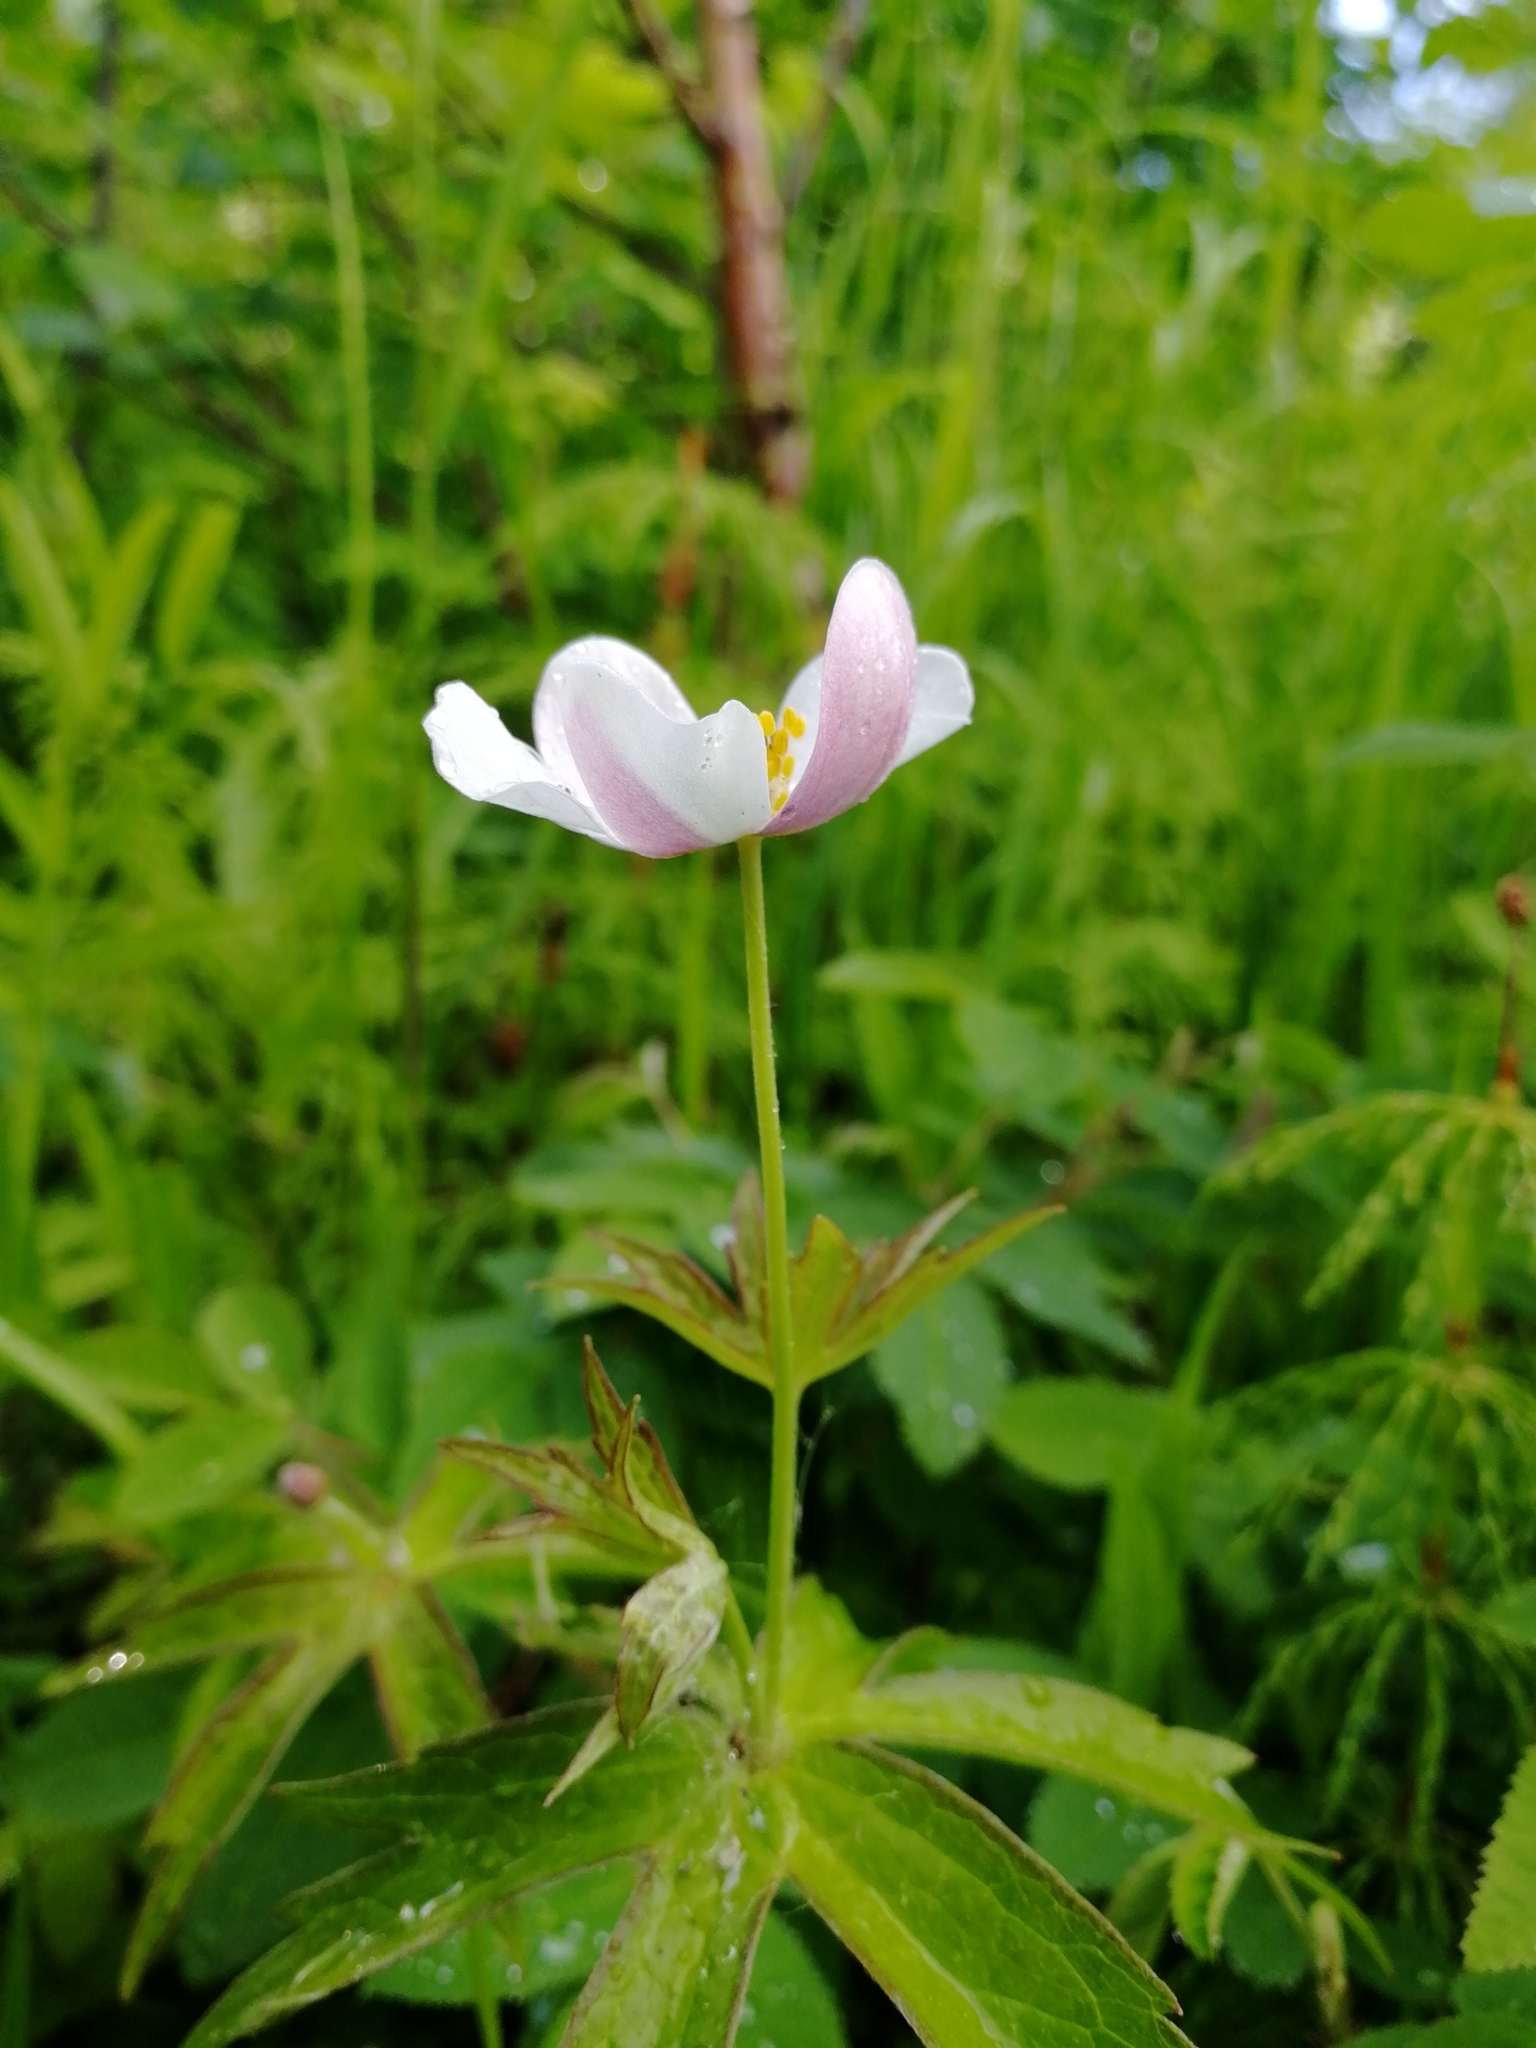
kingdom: Plantae
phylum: Tracheophyta
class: Magnoliopsida
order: Ranunculales
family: Ranunculaceae
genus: Anemonastrum
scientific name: Anemonastrum dichotomum
